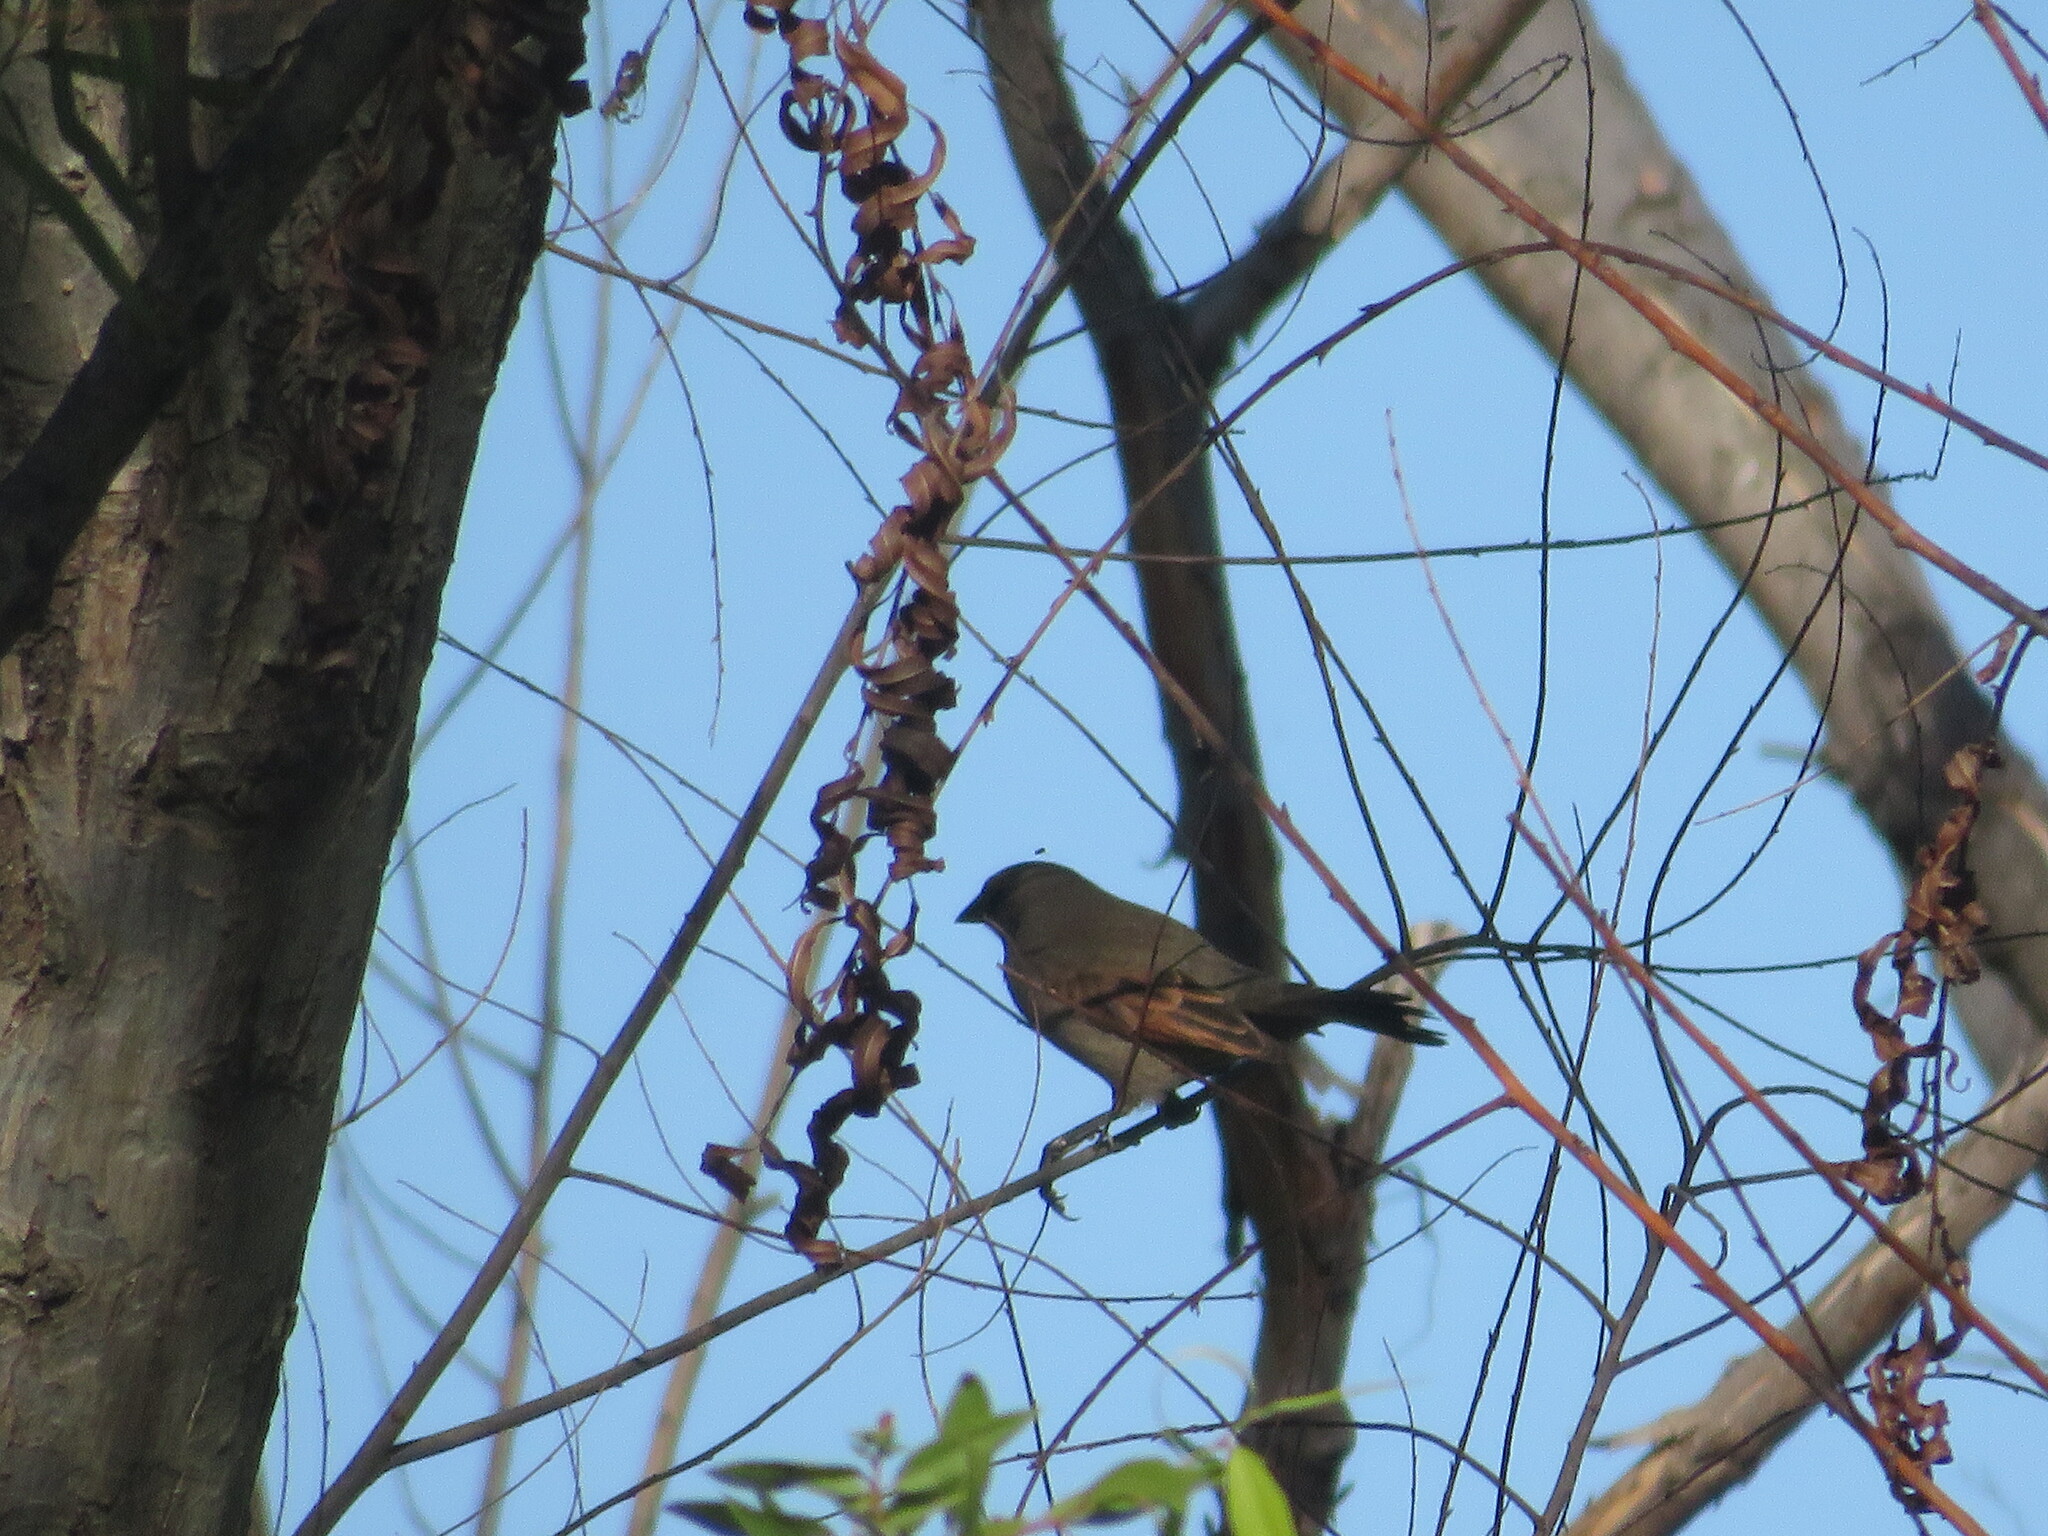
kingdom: Animalia
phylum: Chordata
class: Aves
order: Passeriformes
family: Icteridae
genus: Agelaioides
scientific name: Agelaioides badius
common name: Baywing
